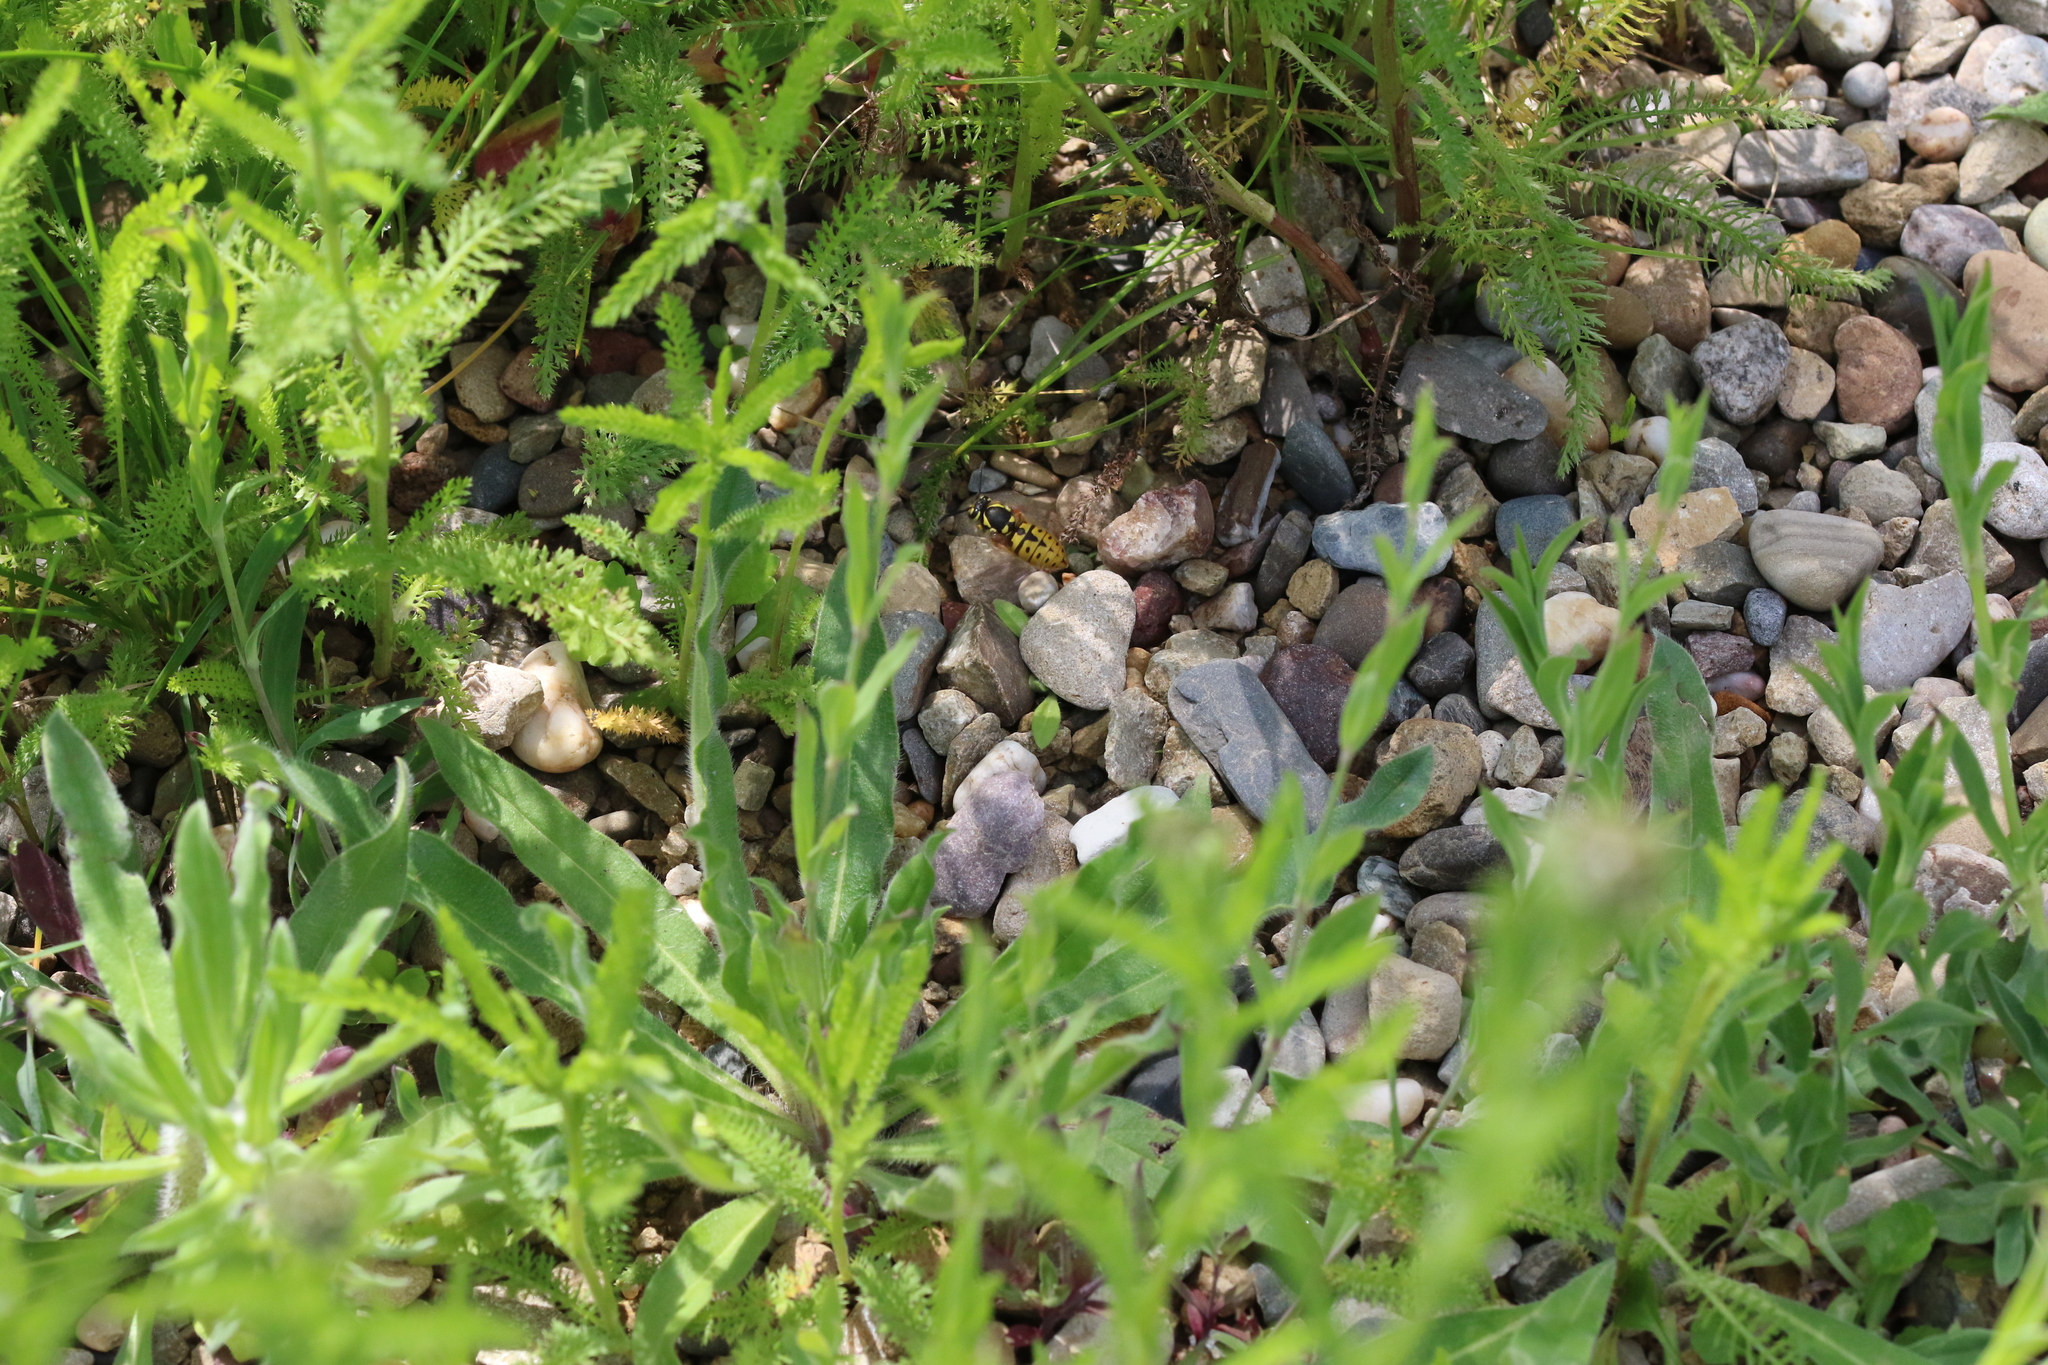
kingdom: Animalia
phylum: Arthropoda
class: Insecta
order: Hymenoptera
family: Vespidae
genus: Vespula
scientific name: Vespula germanica
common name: German wasp
